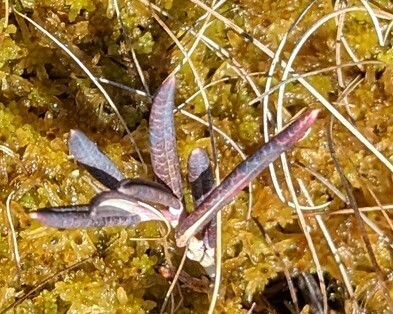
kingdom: Plantae
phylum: Tracheophyta
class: Magnoliopsida
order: Ericales
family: Ericaceae
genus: Andromeda
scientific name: Andromeda polifolia
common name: Bog-rosemary
